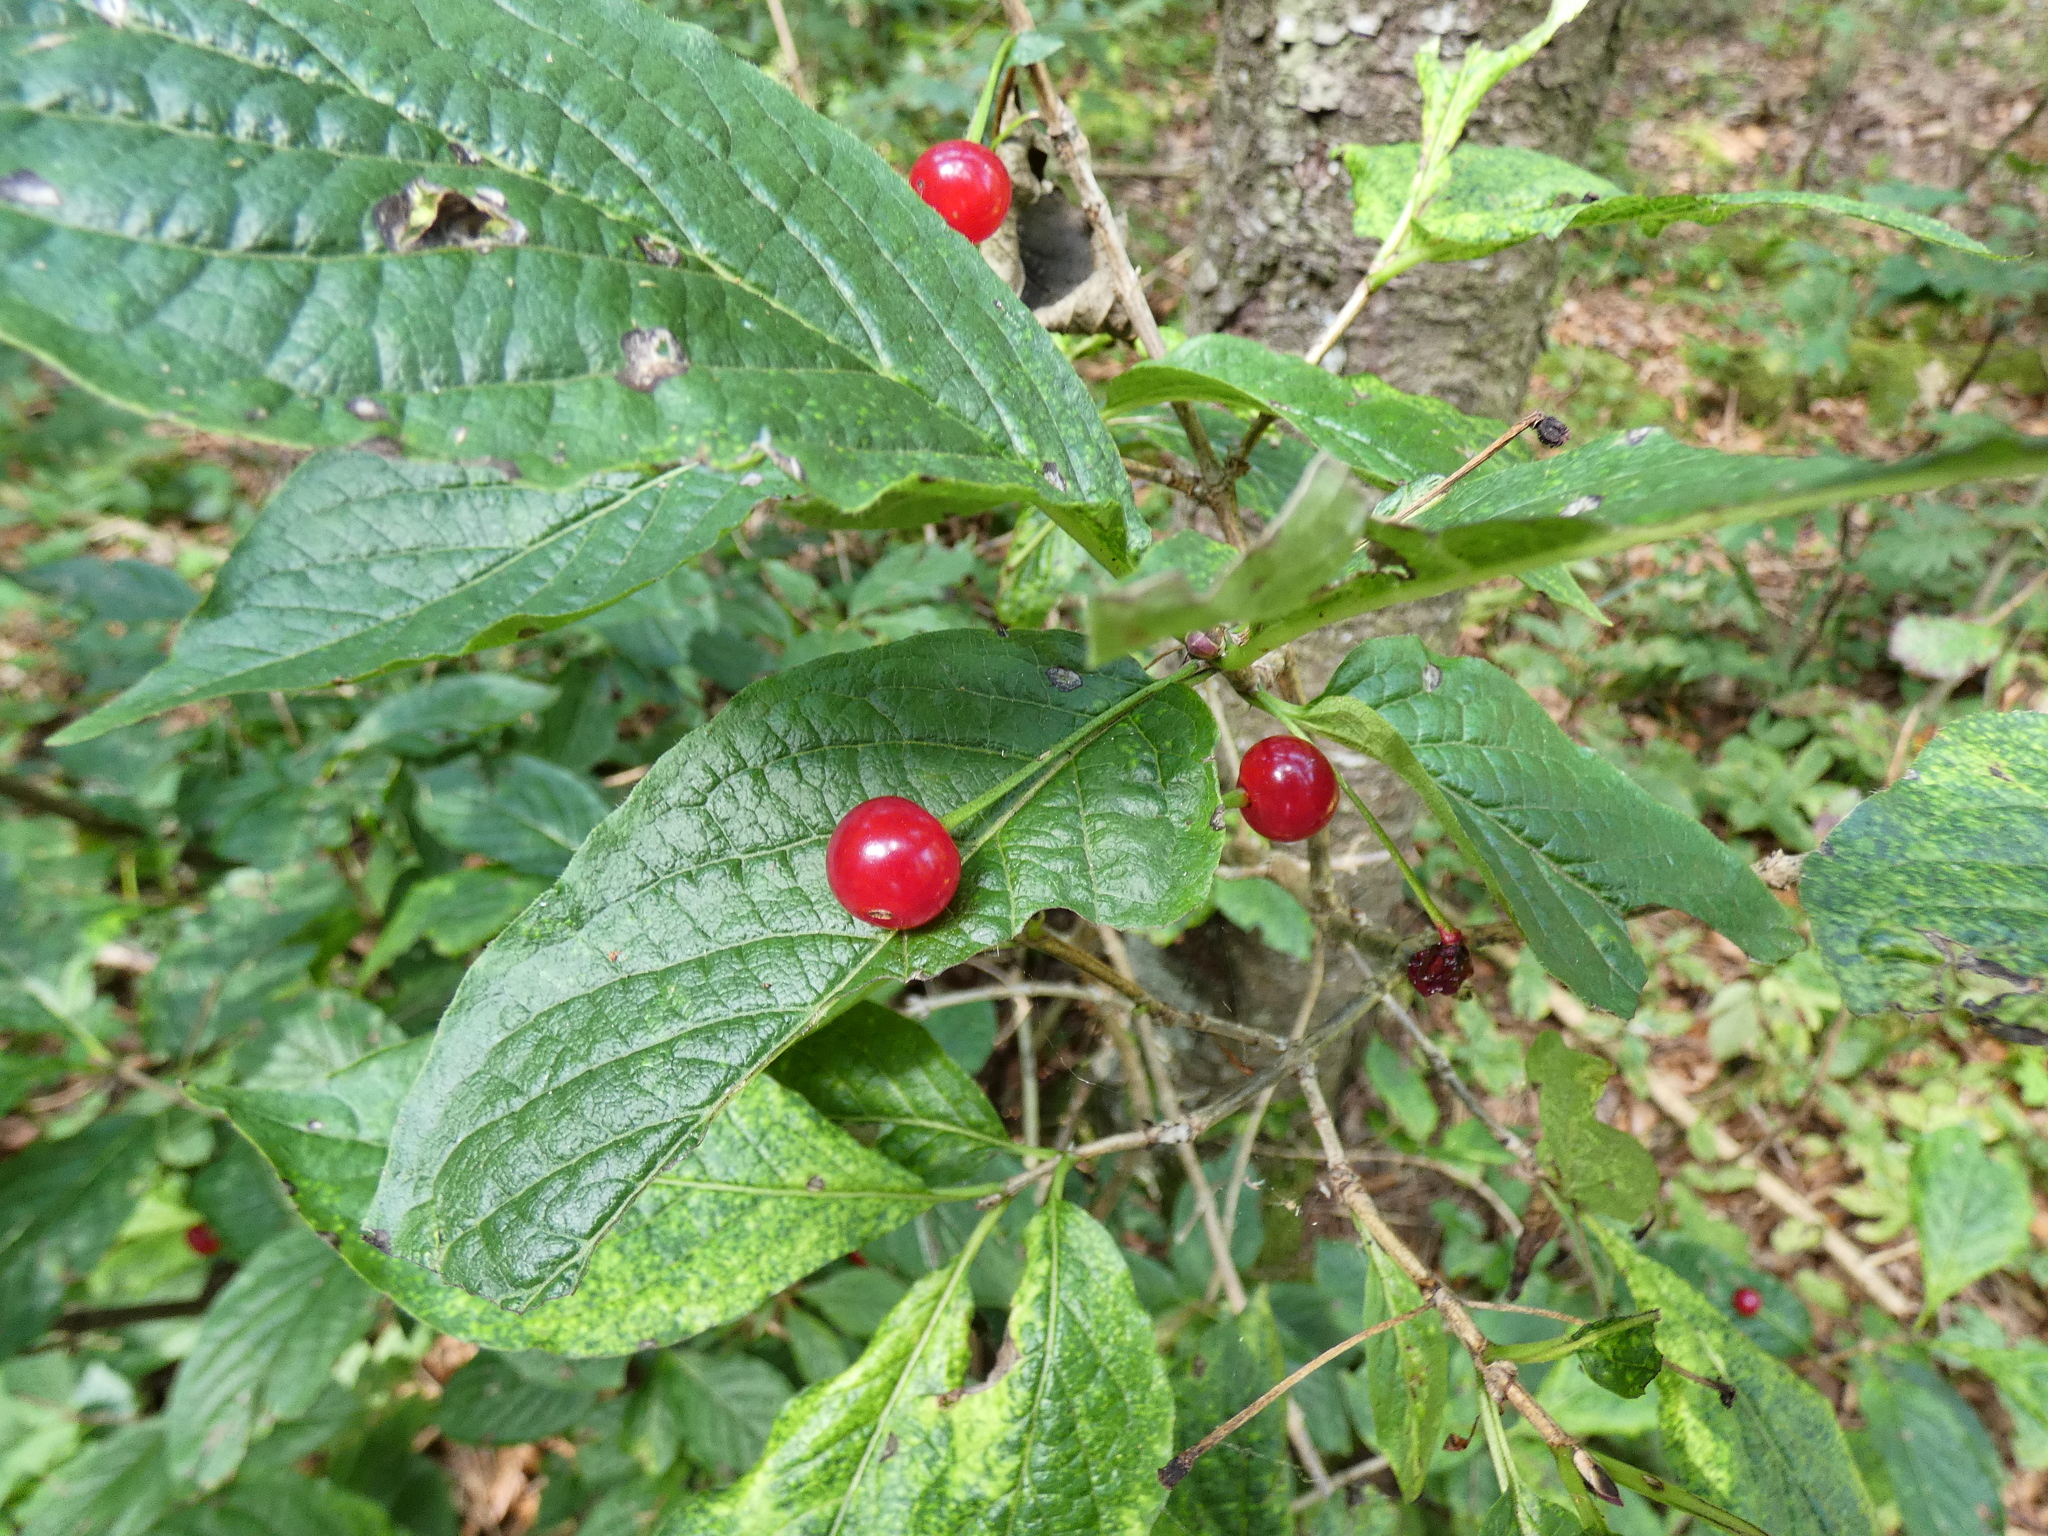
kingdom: Plantae
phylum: Tracheophyta
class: Magnoliopsida
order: Dipsacales
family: Caprifoliaceae
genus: Lonicera
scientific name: Lonicera alpigena
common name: Alpine honeysuckle
